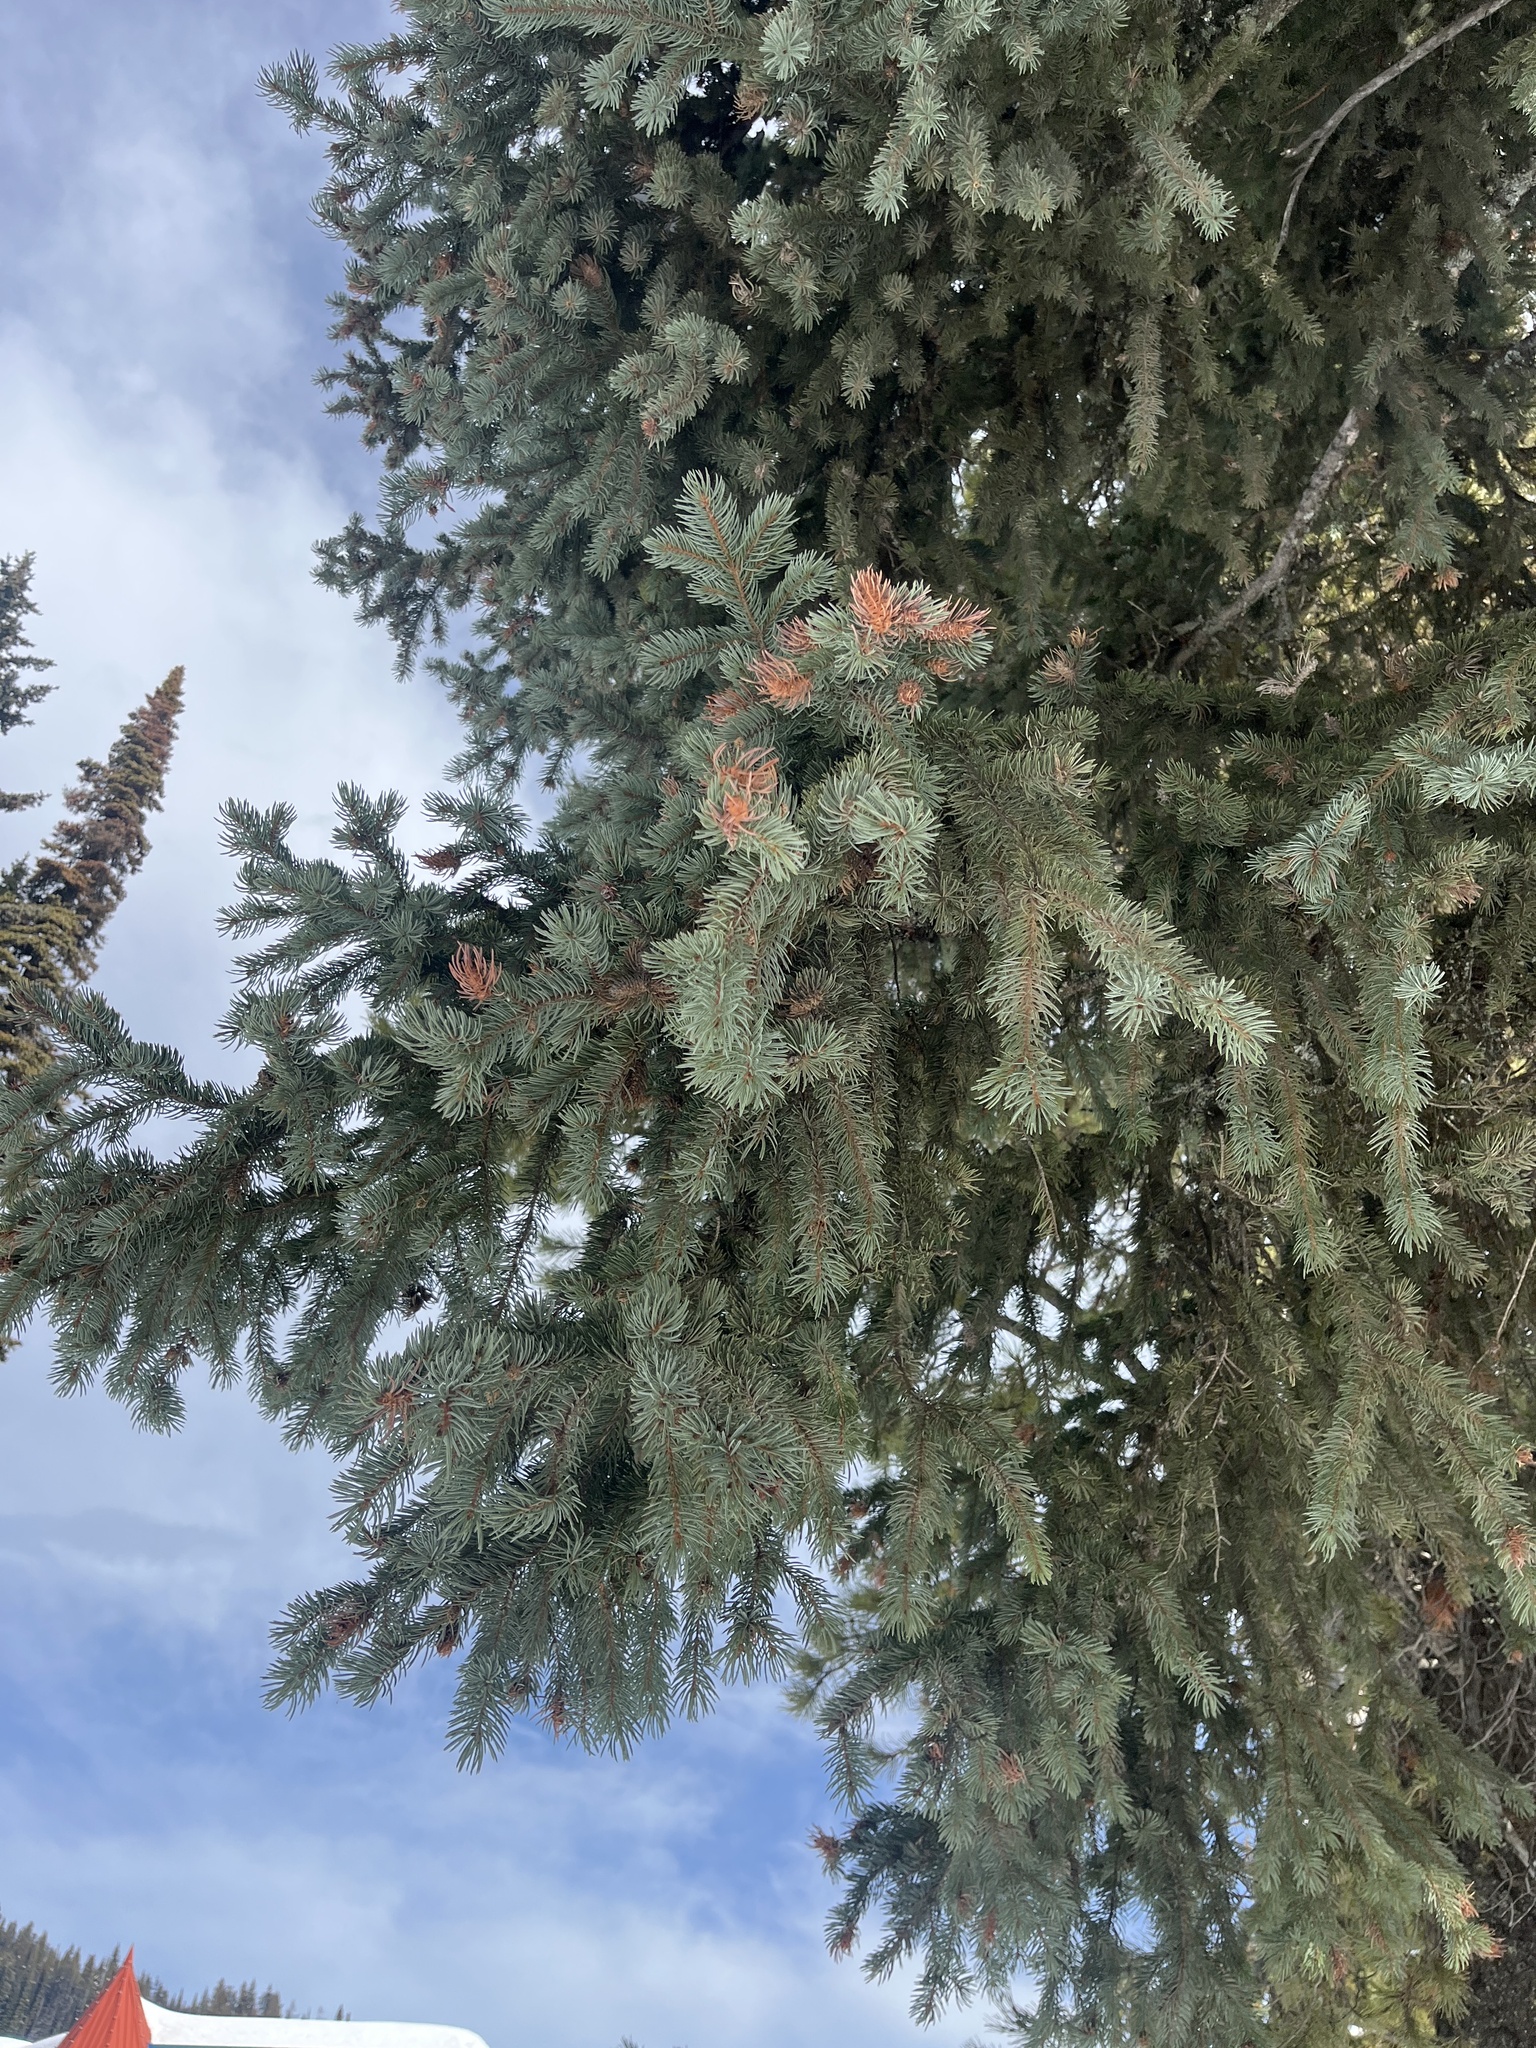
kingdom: Plantae
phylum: Tracheophyta
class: Pinopsida
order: Pinales
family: Pinaceae
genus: Picea
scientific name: Picea
